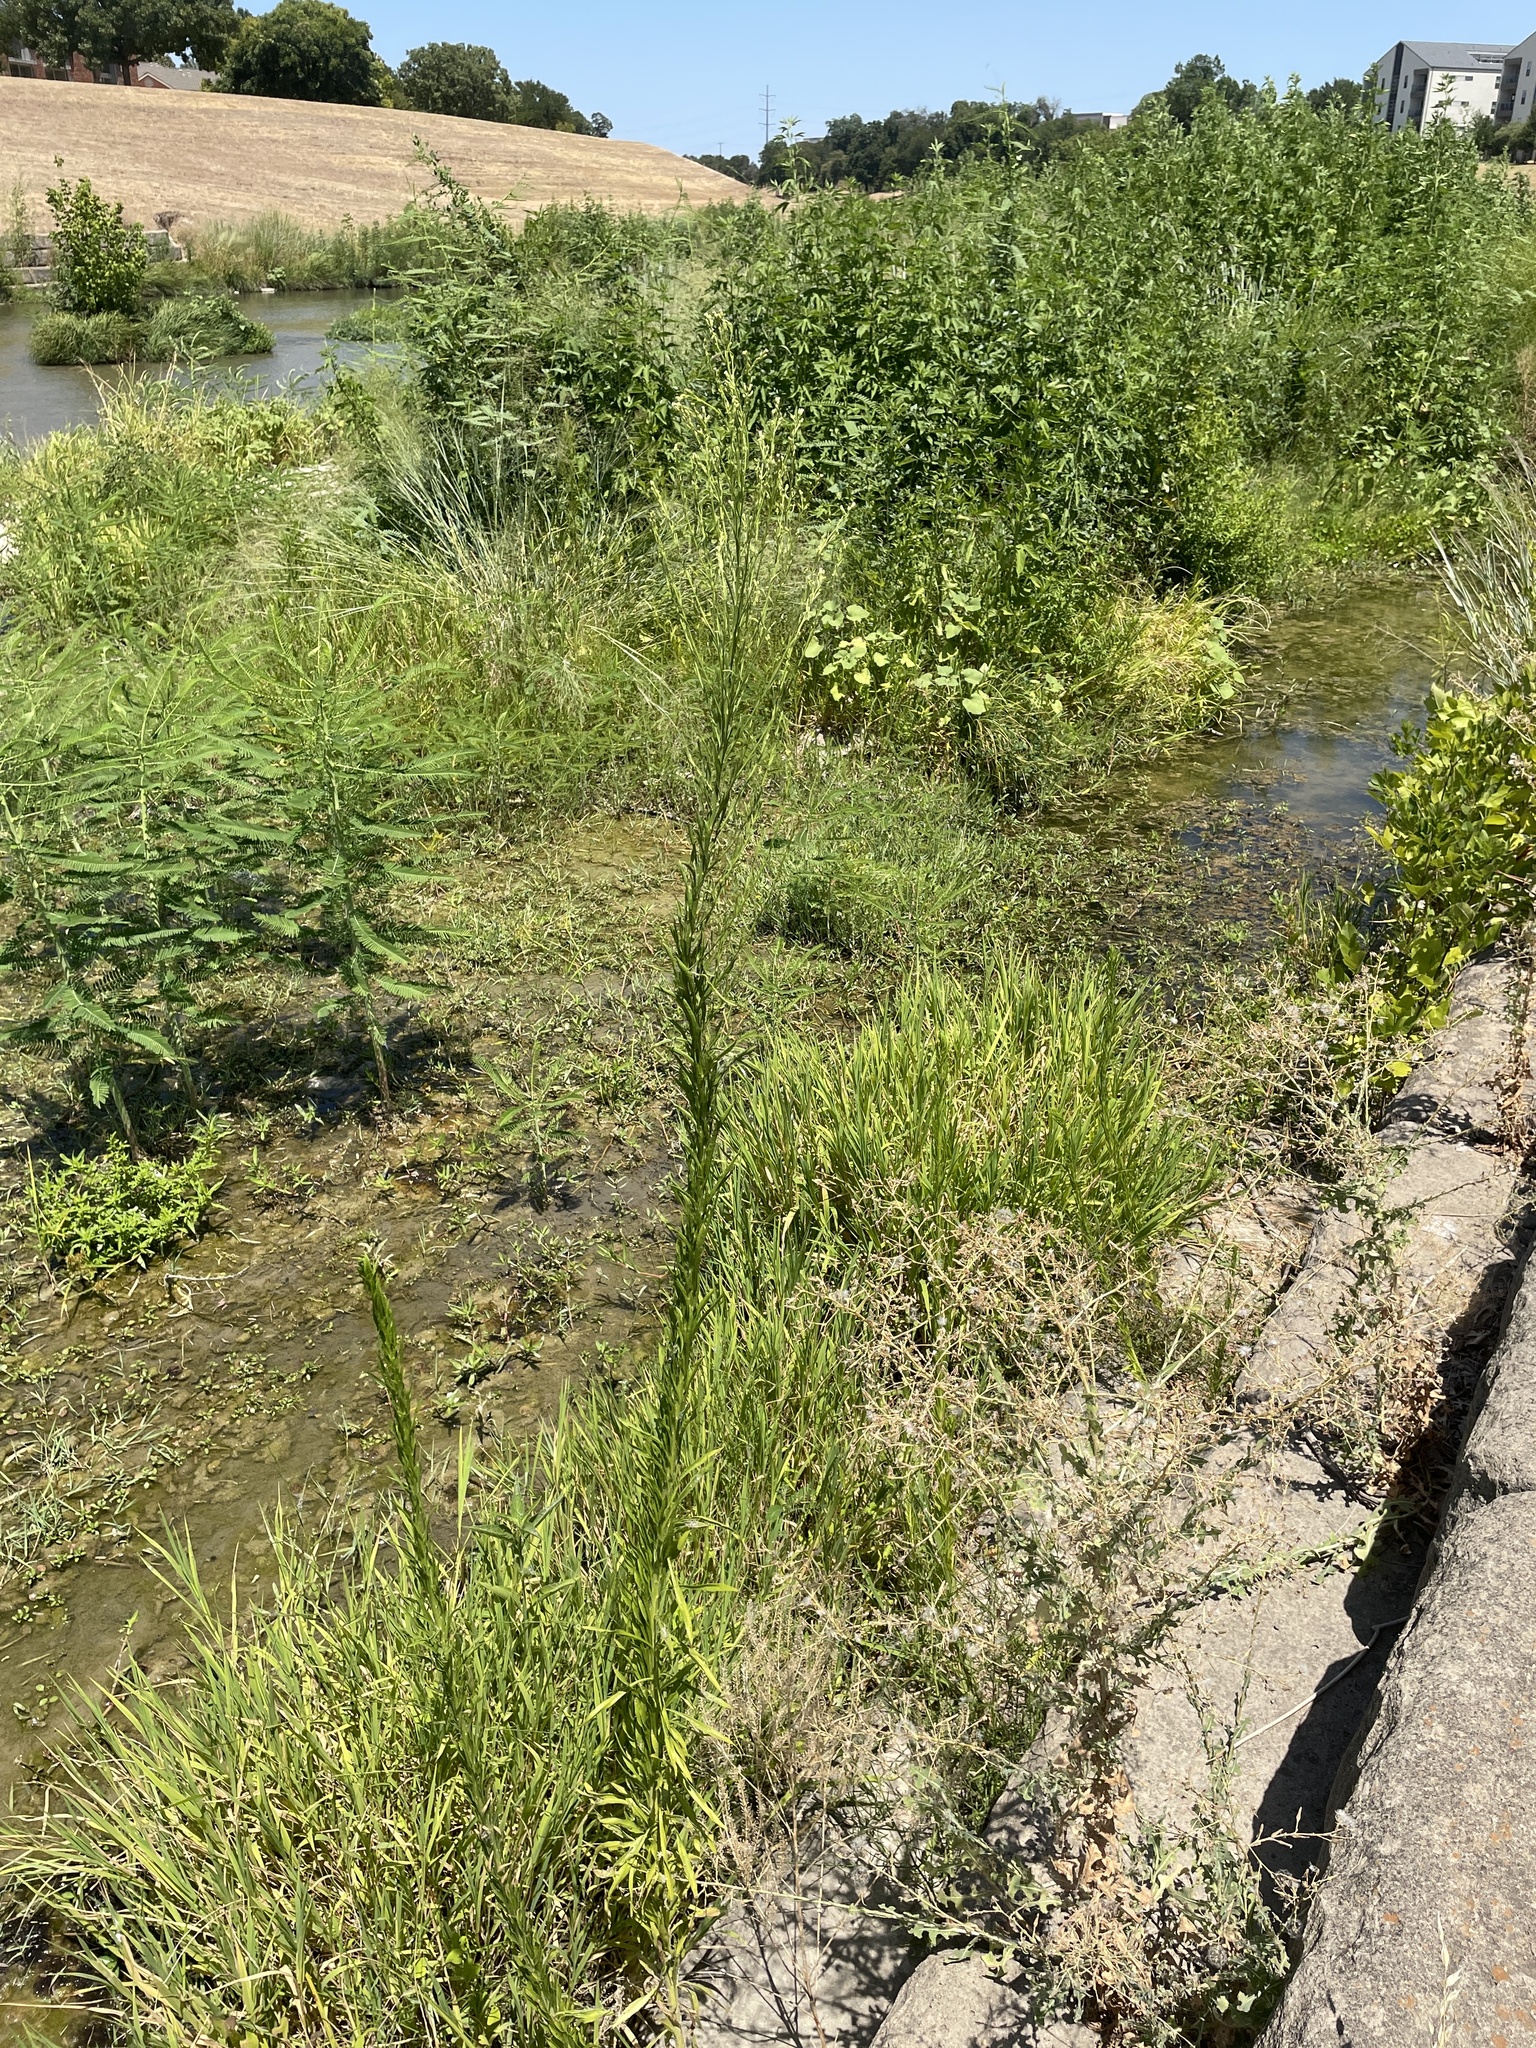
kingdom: Plantae
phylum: Tracheophyta
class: Magnoliopsida
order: Asterales
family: Asteraceae
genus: Erigeron
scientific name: Erigeron canadensis
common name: Canadian fleabane
